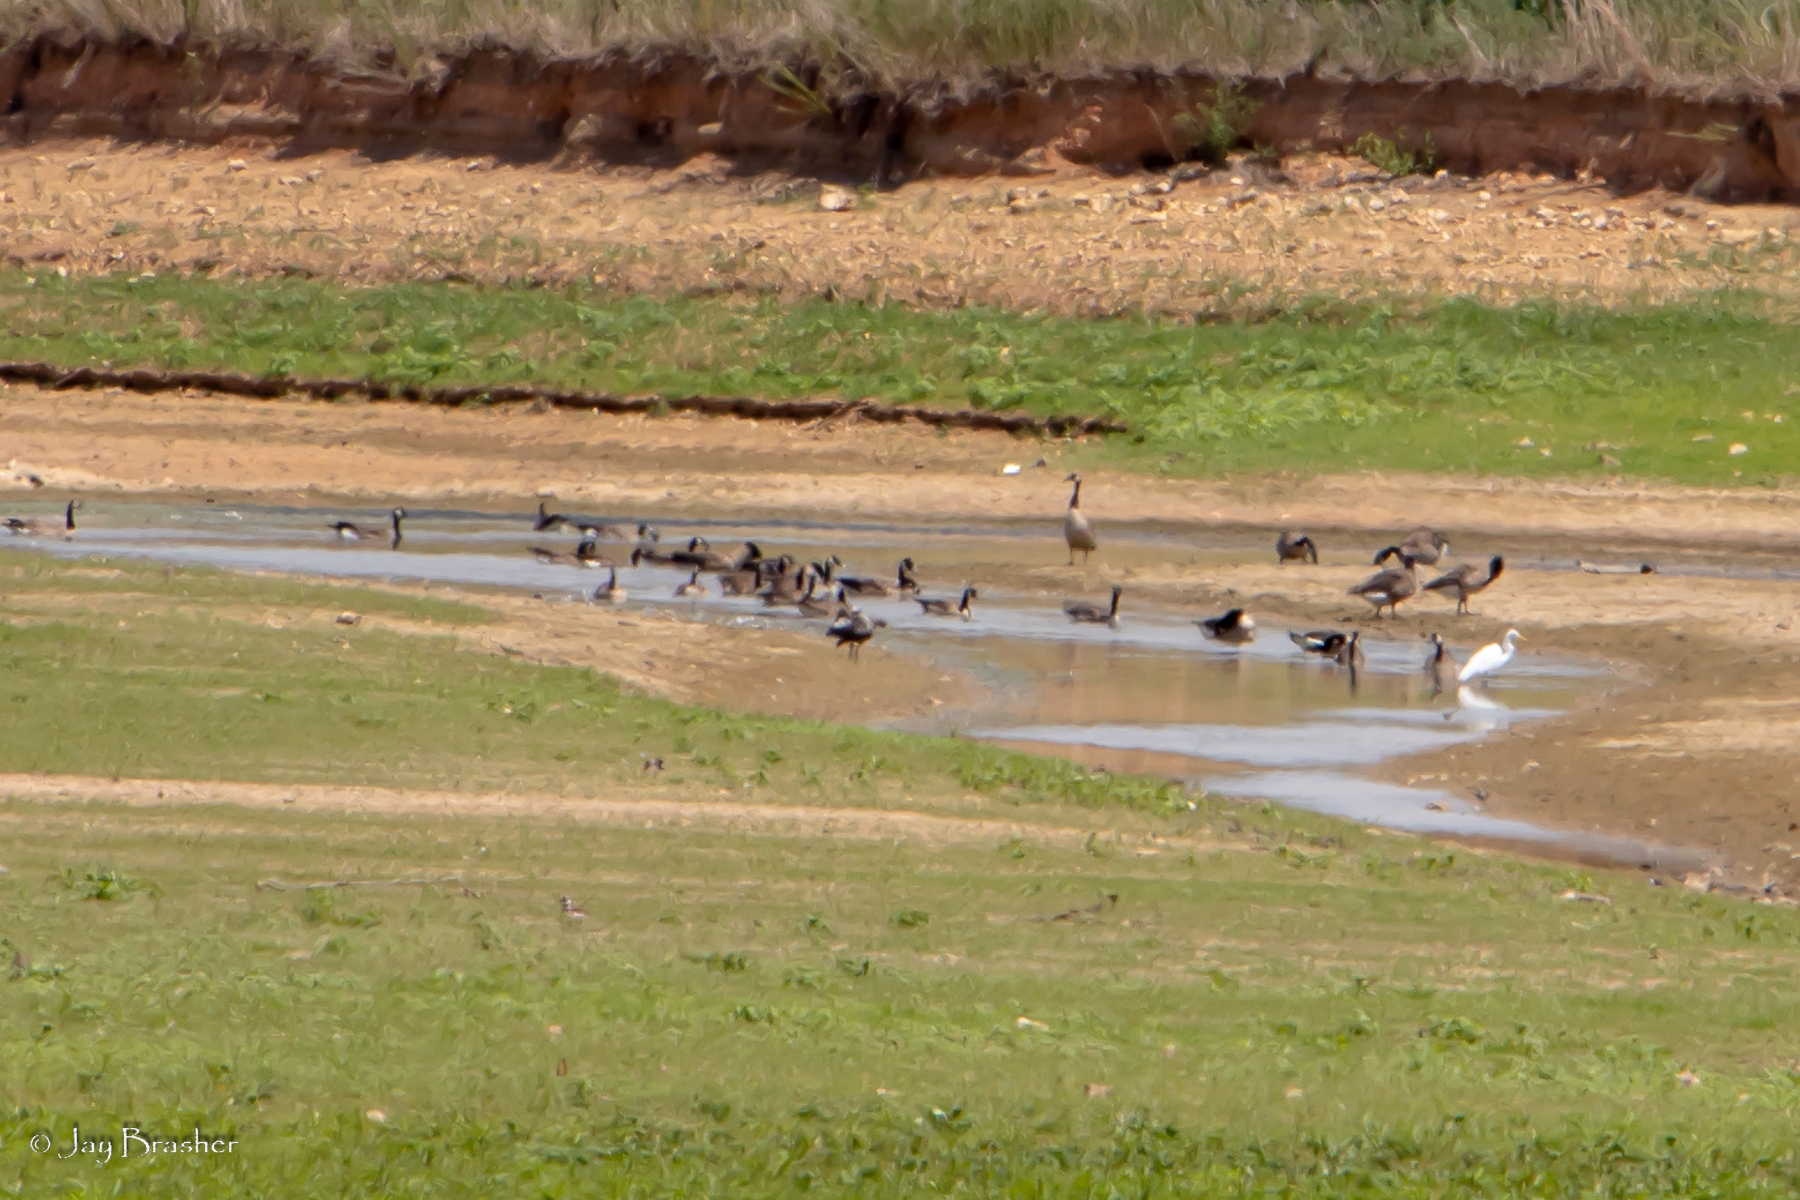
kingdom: Animalia
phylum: Chordata
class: Aves
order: Anseriformes
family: Anatidae
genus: Branta
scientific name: Branta canadensis
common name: Canada goose
